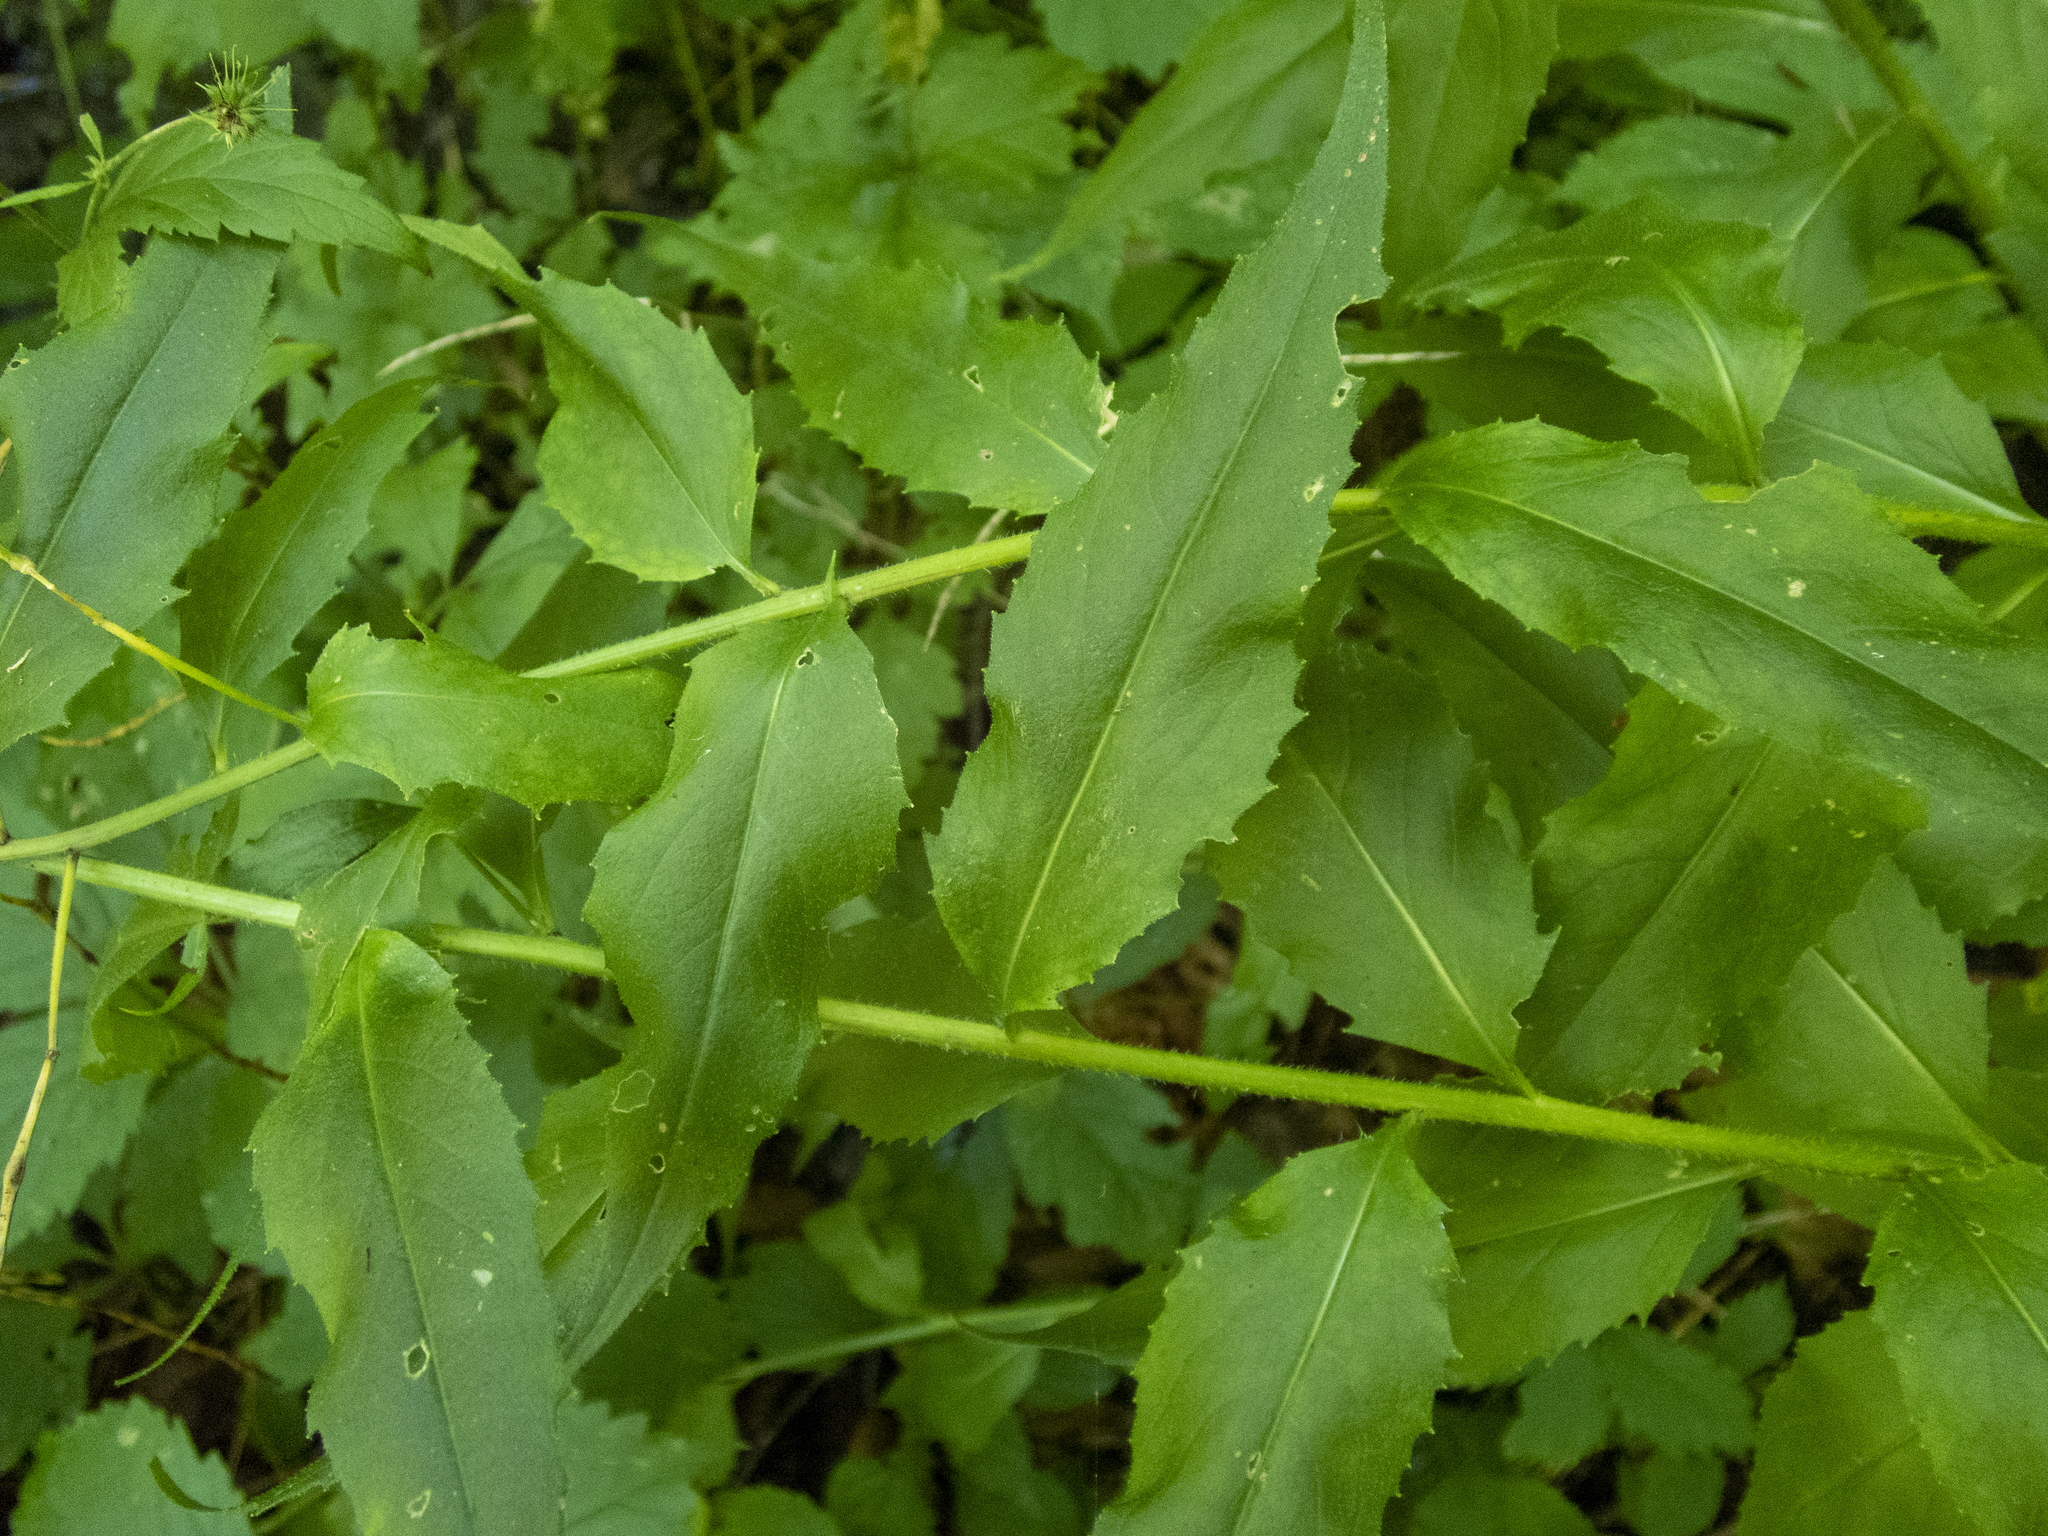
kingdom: Plantae
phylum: Tracheophyta
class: Magnoliopsida
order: Brassicales
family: Brassicaceae
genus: Hesperis
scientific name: Hesperis matronalis
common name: Dame's-violet
